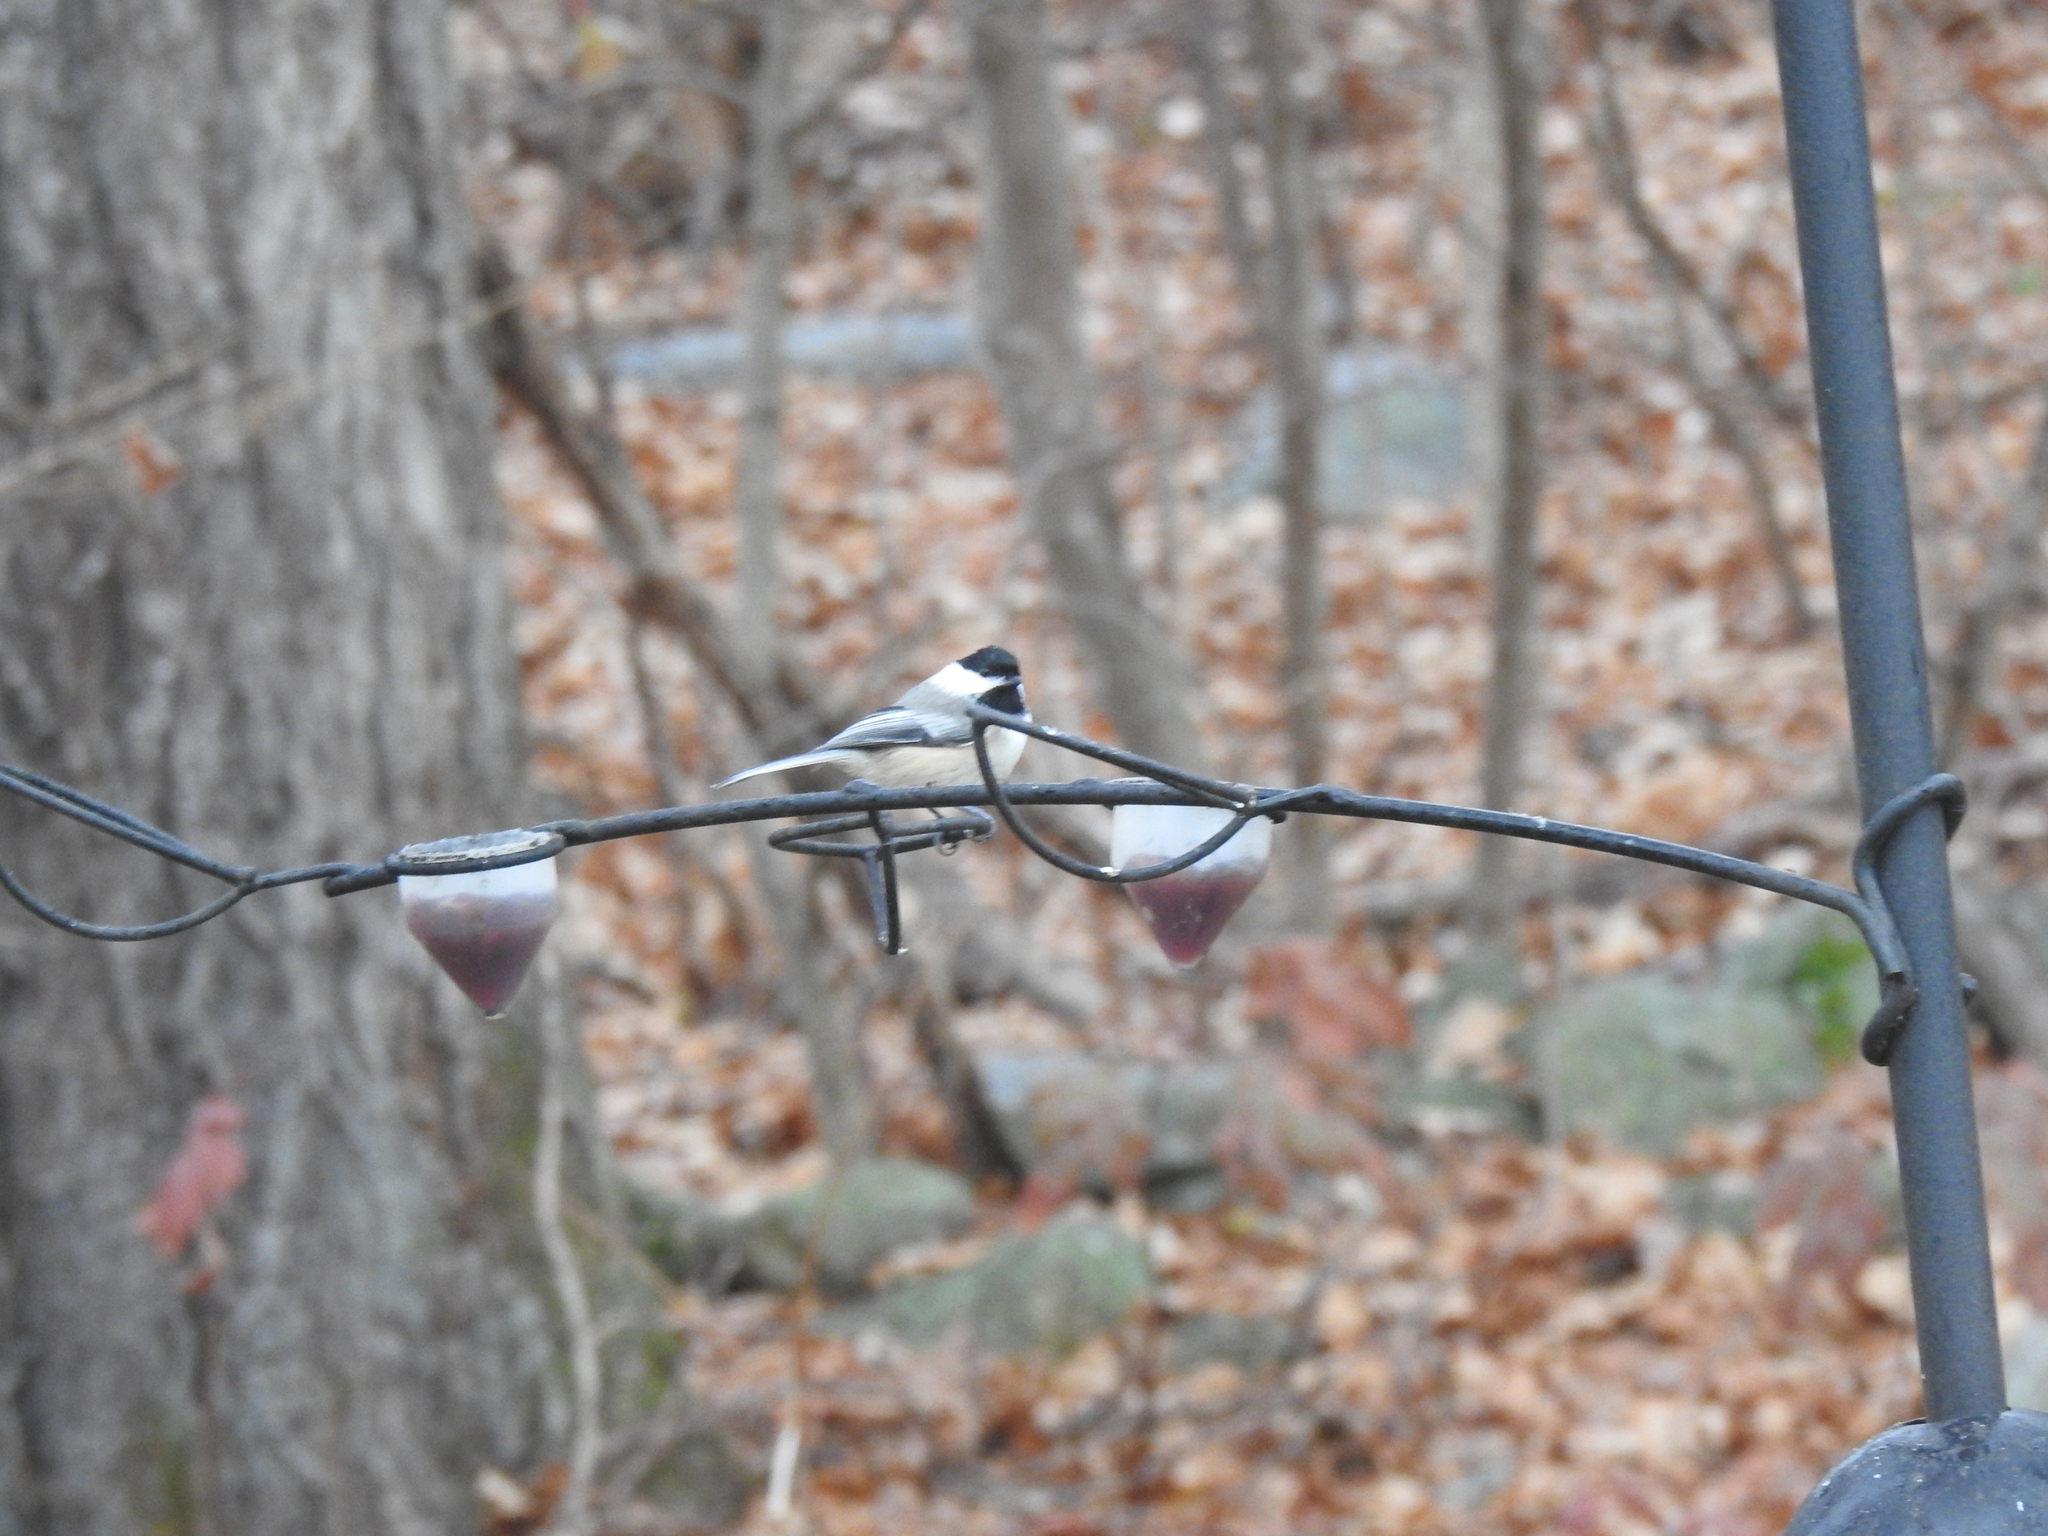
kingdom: Animalia
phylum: Chordata
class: Aves
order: Passeriformes
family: Paridae
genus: Poecile
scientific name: Poecile atricapillus
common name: Black-capped chickadee
